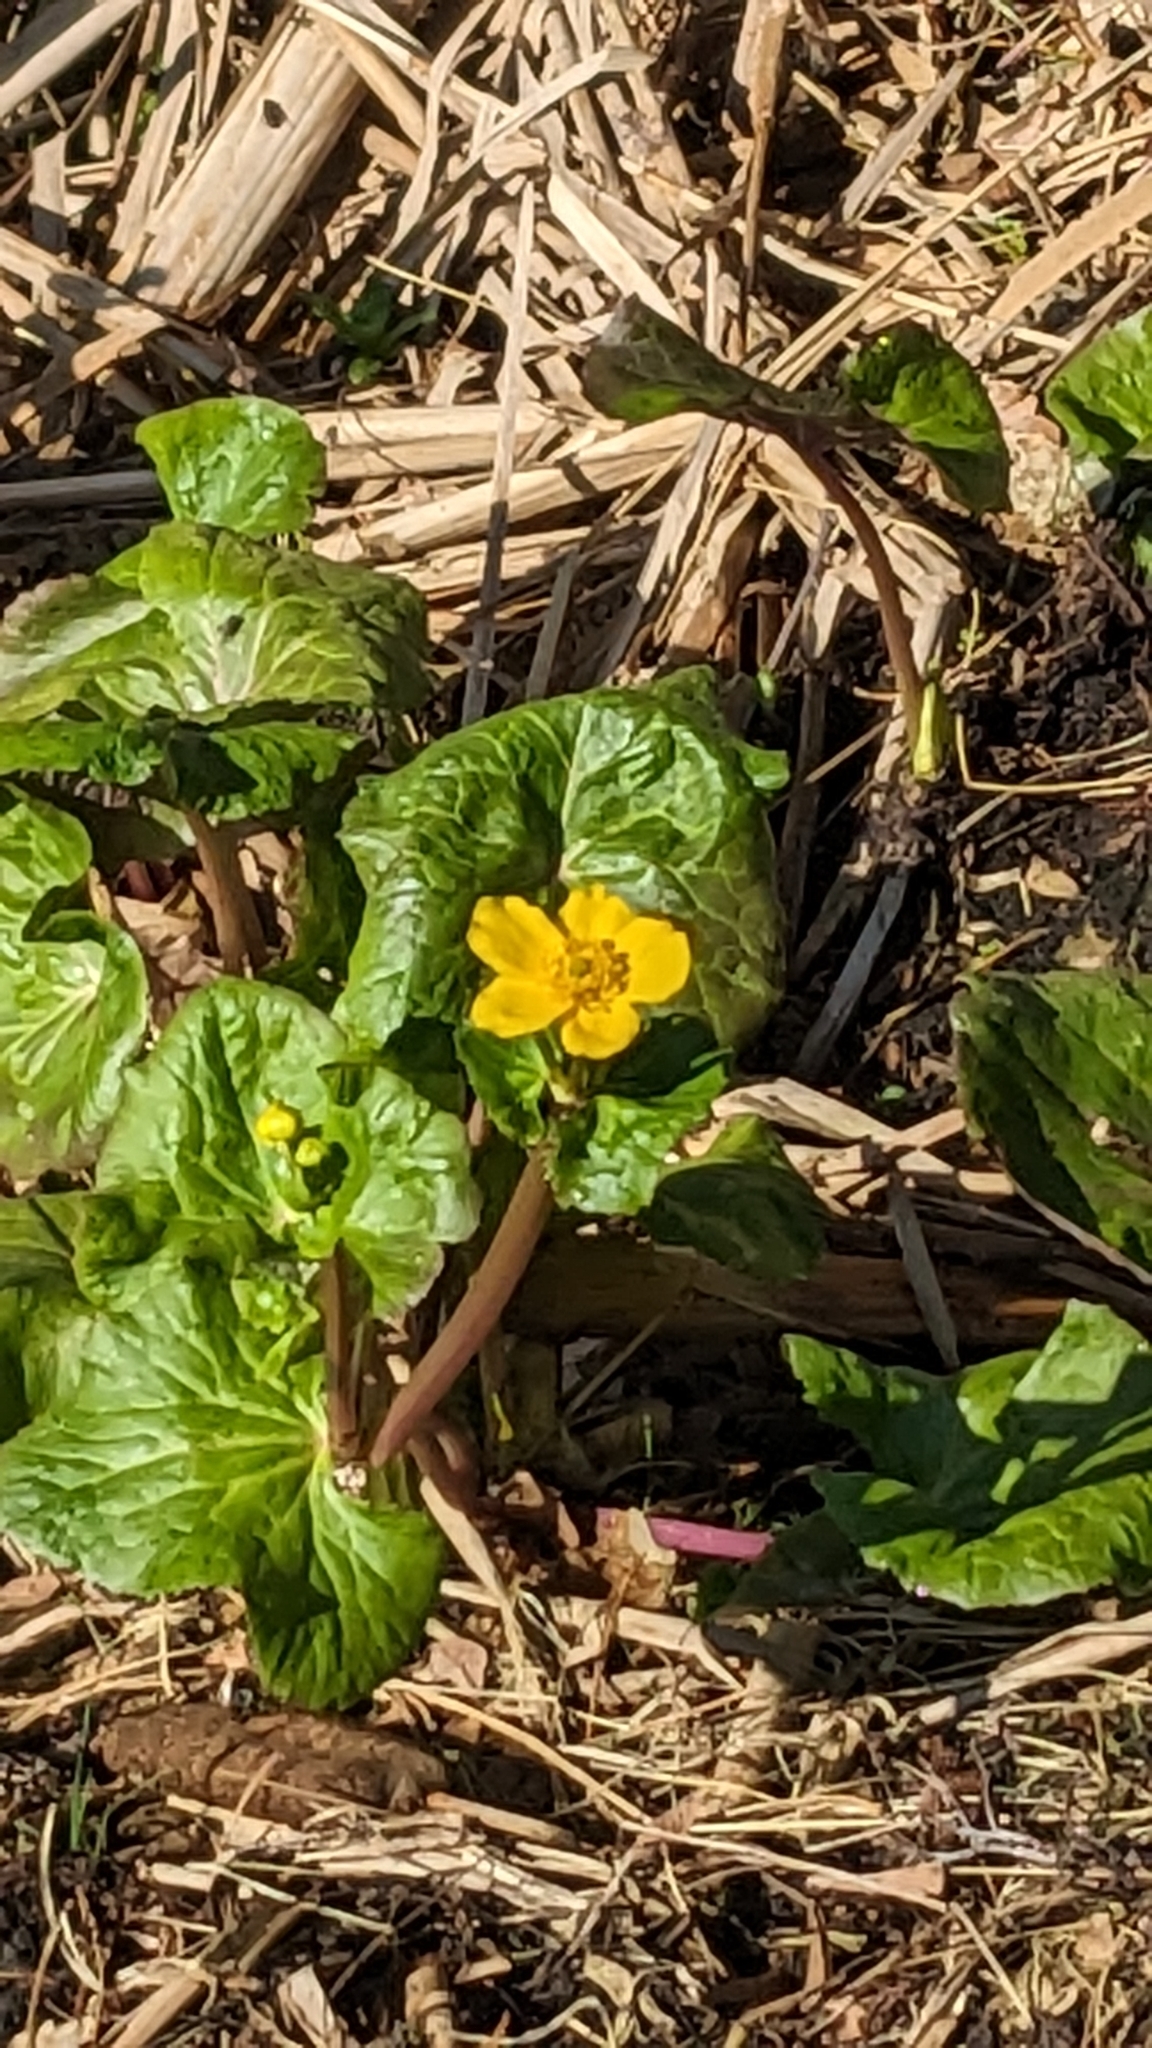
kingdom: Plantae
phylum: Tracheophyta
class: Magnoliopsida
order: Ranunculales
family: Ranunculaceae
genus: Caltha
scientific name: Caltha palustris
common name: Marsh marigold
